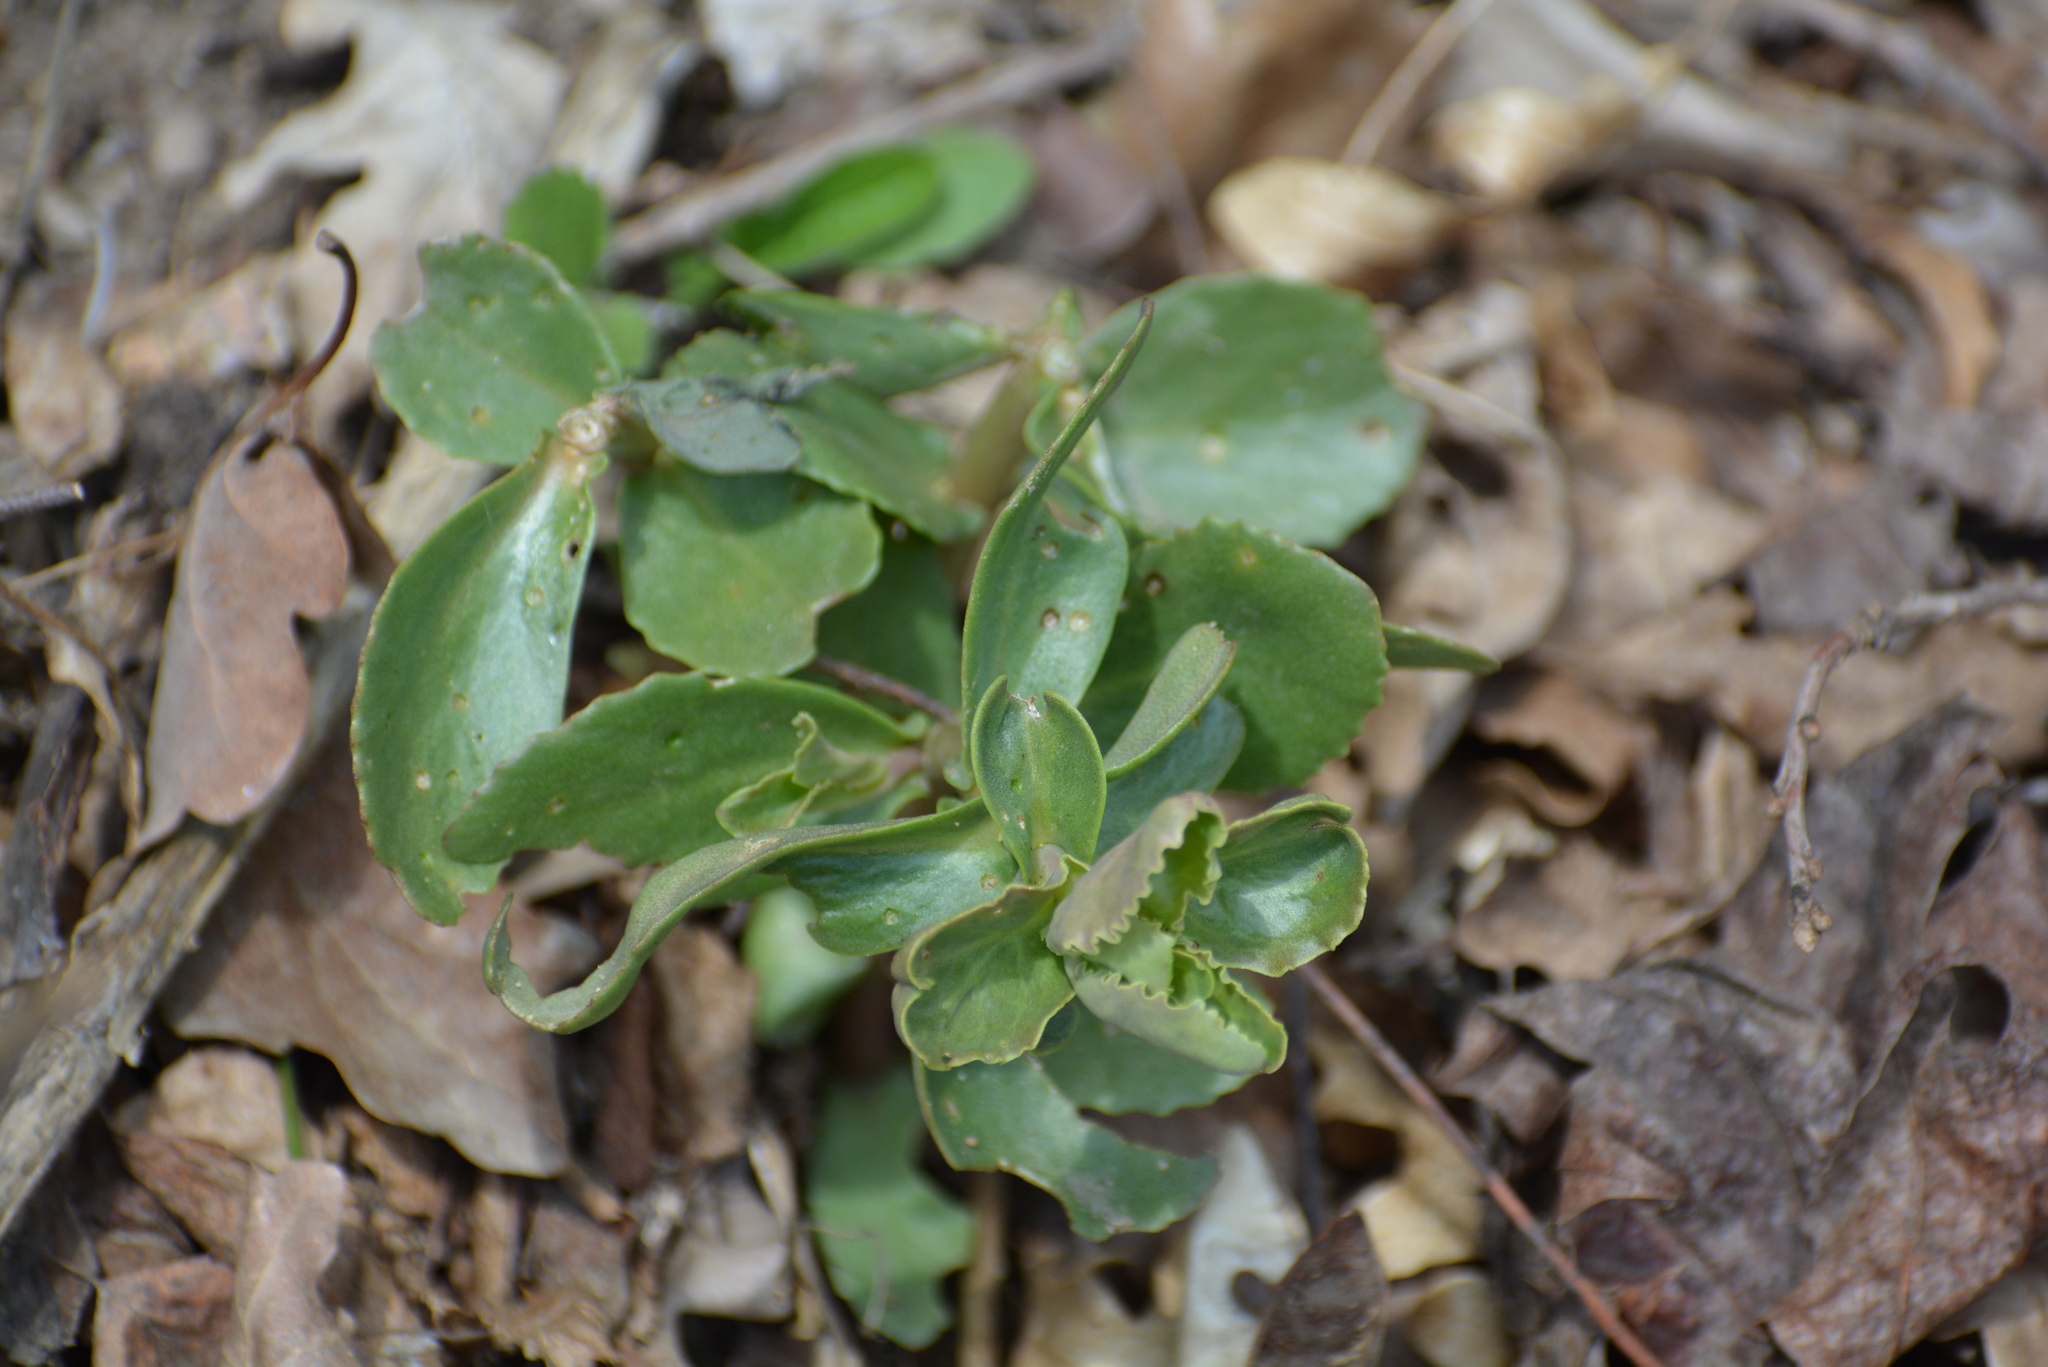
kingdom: Plantae
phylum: Tracheophyta
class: Magnoliopsida
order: Saxifragales
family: Crassulaceae
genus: Hylotelephium
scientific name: Hylotelephium maximum
